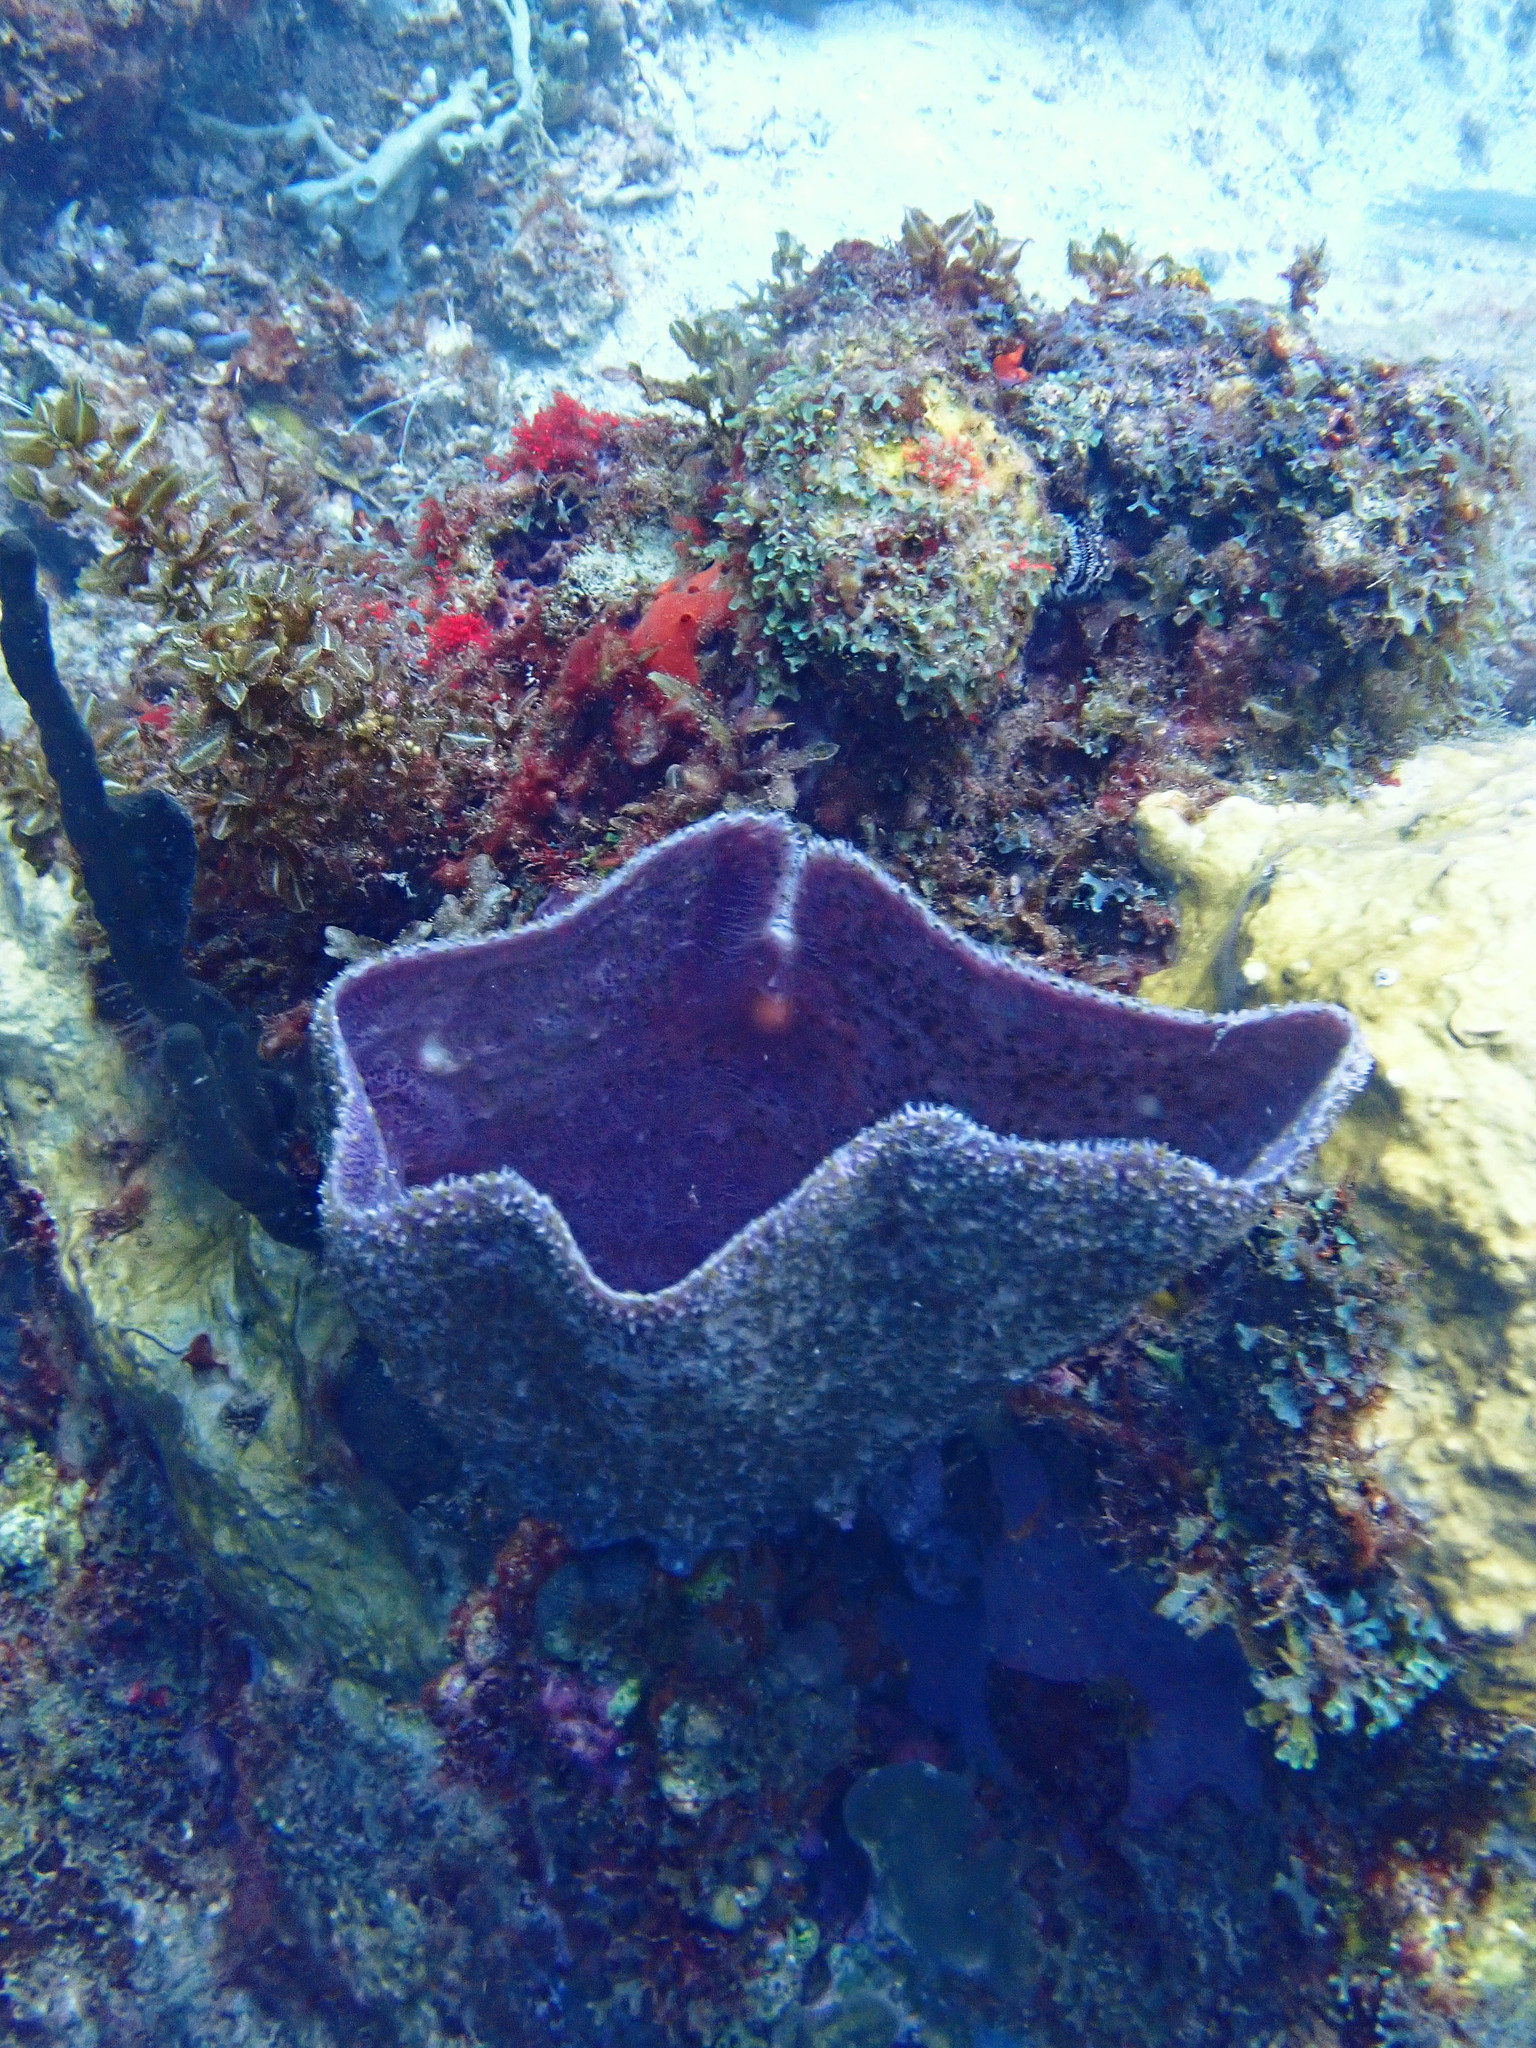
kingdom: Animalia
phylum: Porifera
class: Demospongiae
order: Haplosclerida
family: Niphatidae
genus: Niphates
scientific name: Niphates digitalis
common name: Pink vase sponge
